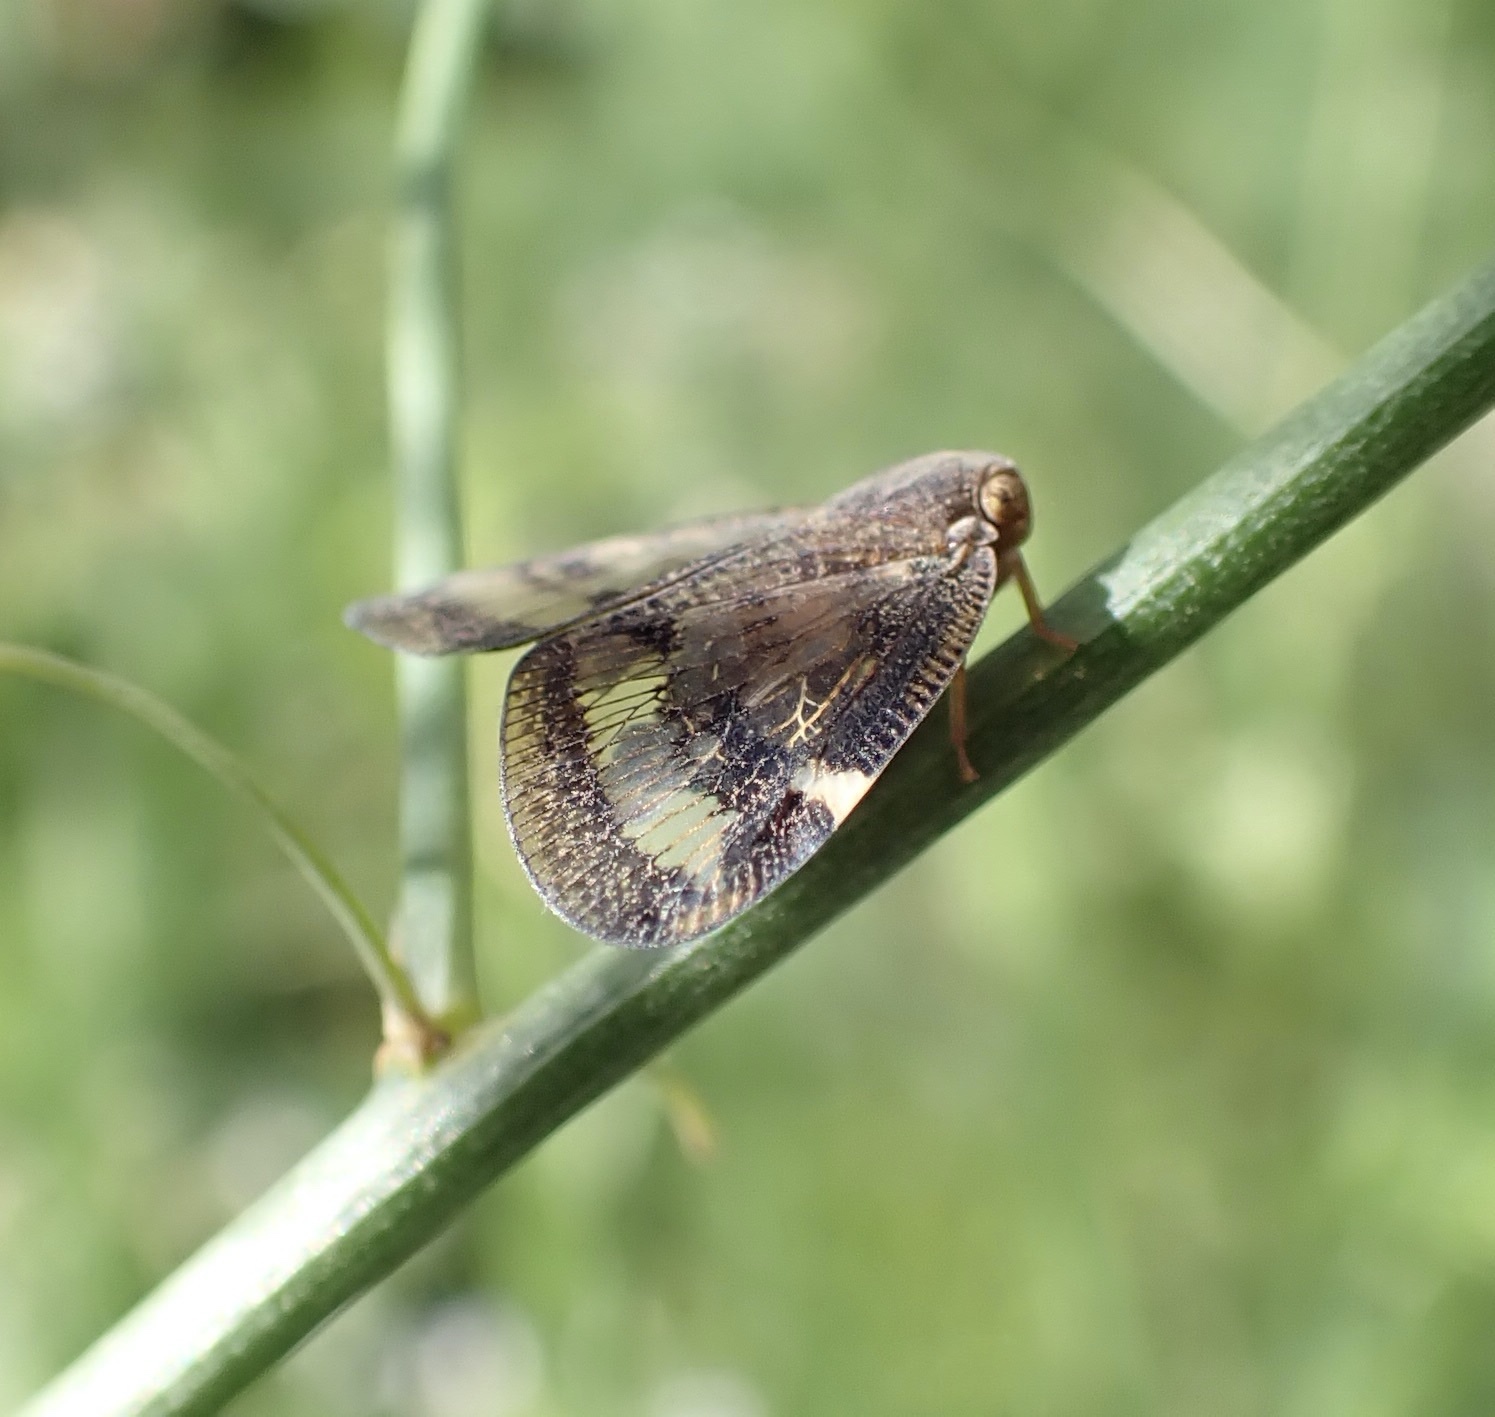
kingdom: Animalia
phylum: Arthropoda
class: Insecta
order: Hemiptera
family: Ricaniidae
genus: Scolypopa
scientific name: Scolypopa australis
